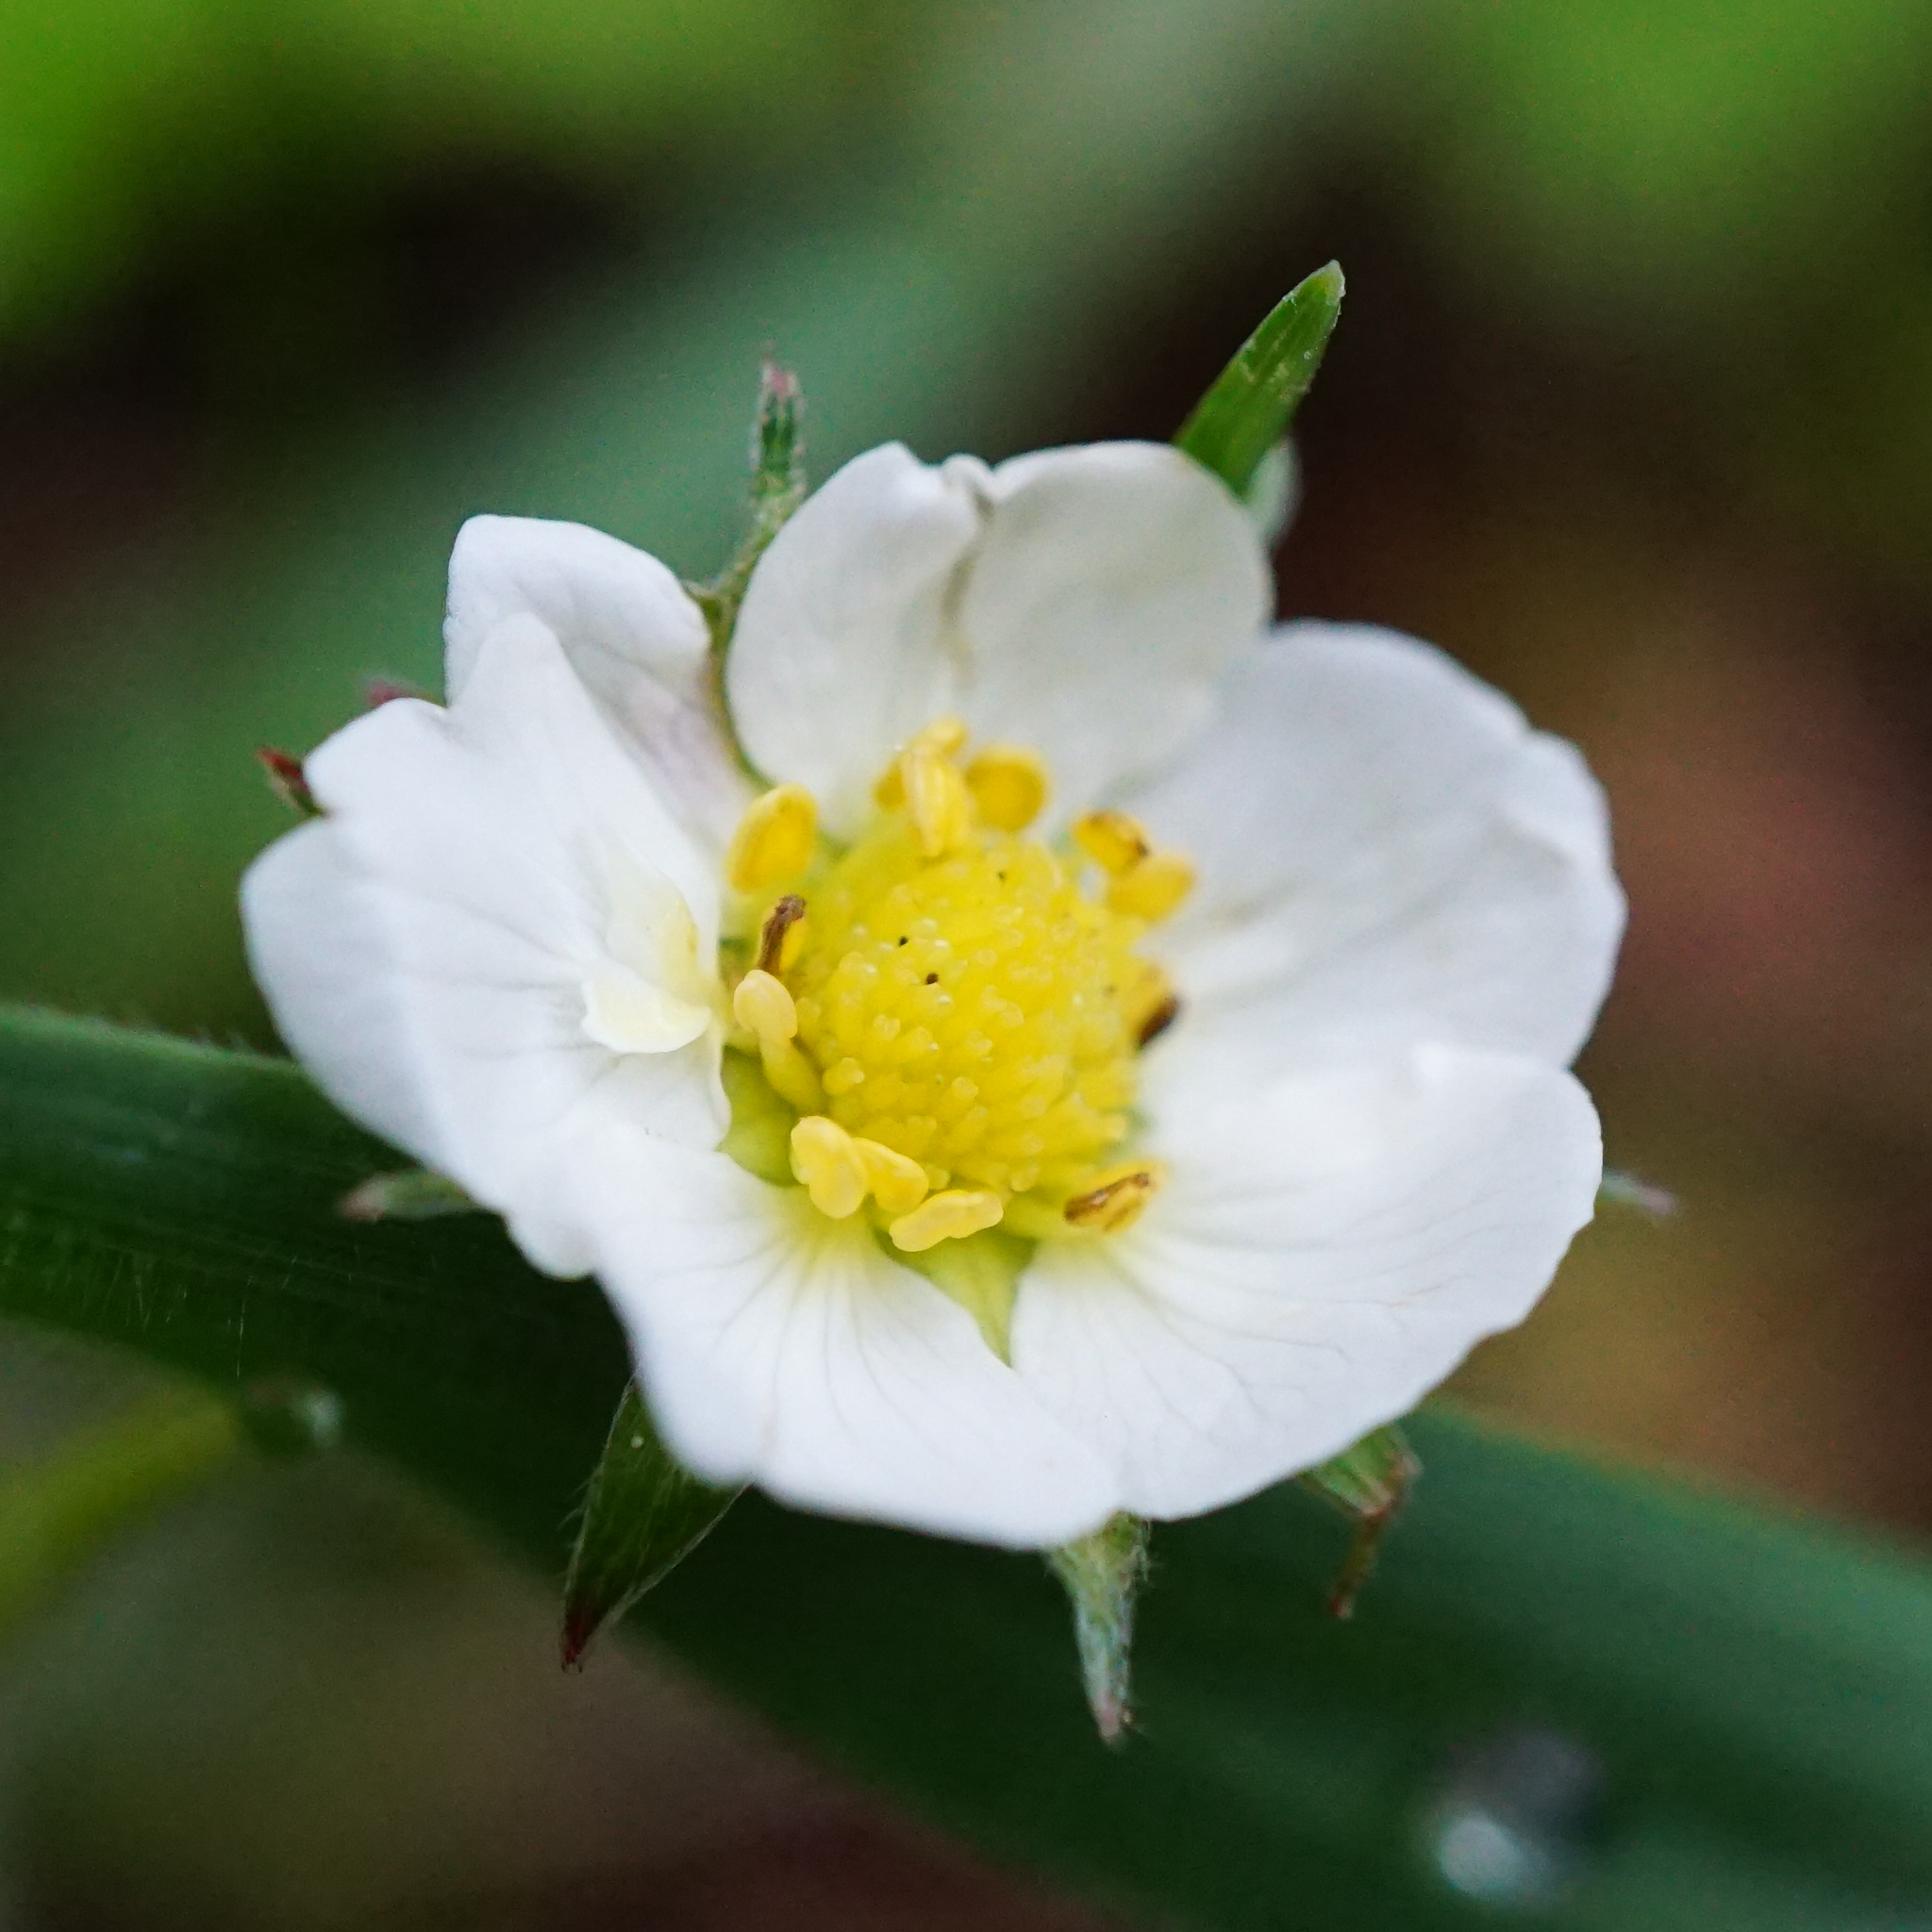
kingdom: Plantae
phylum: Tracheophyta
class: Magnoliopsida
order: Rosales
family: Rosaceae
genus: Fragaria
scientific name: Fragaria vesca
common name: Wild strawberry
